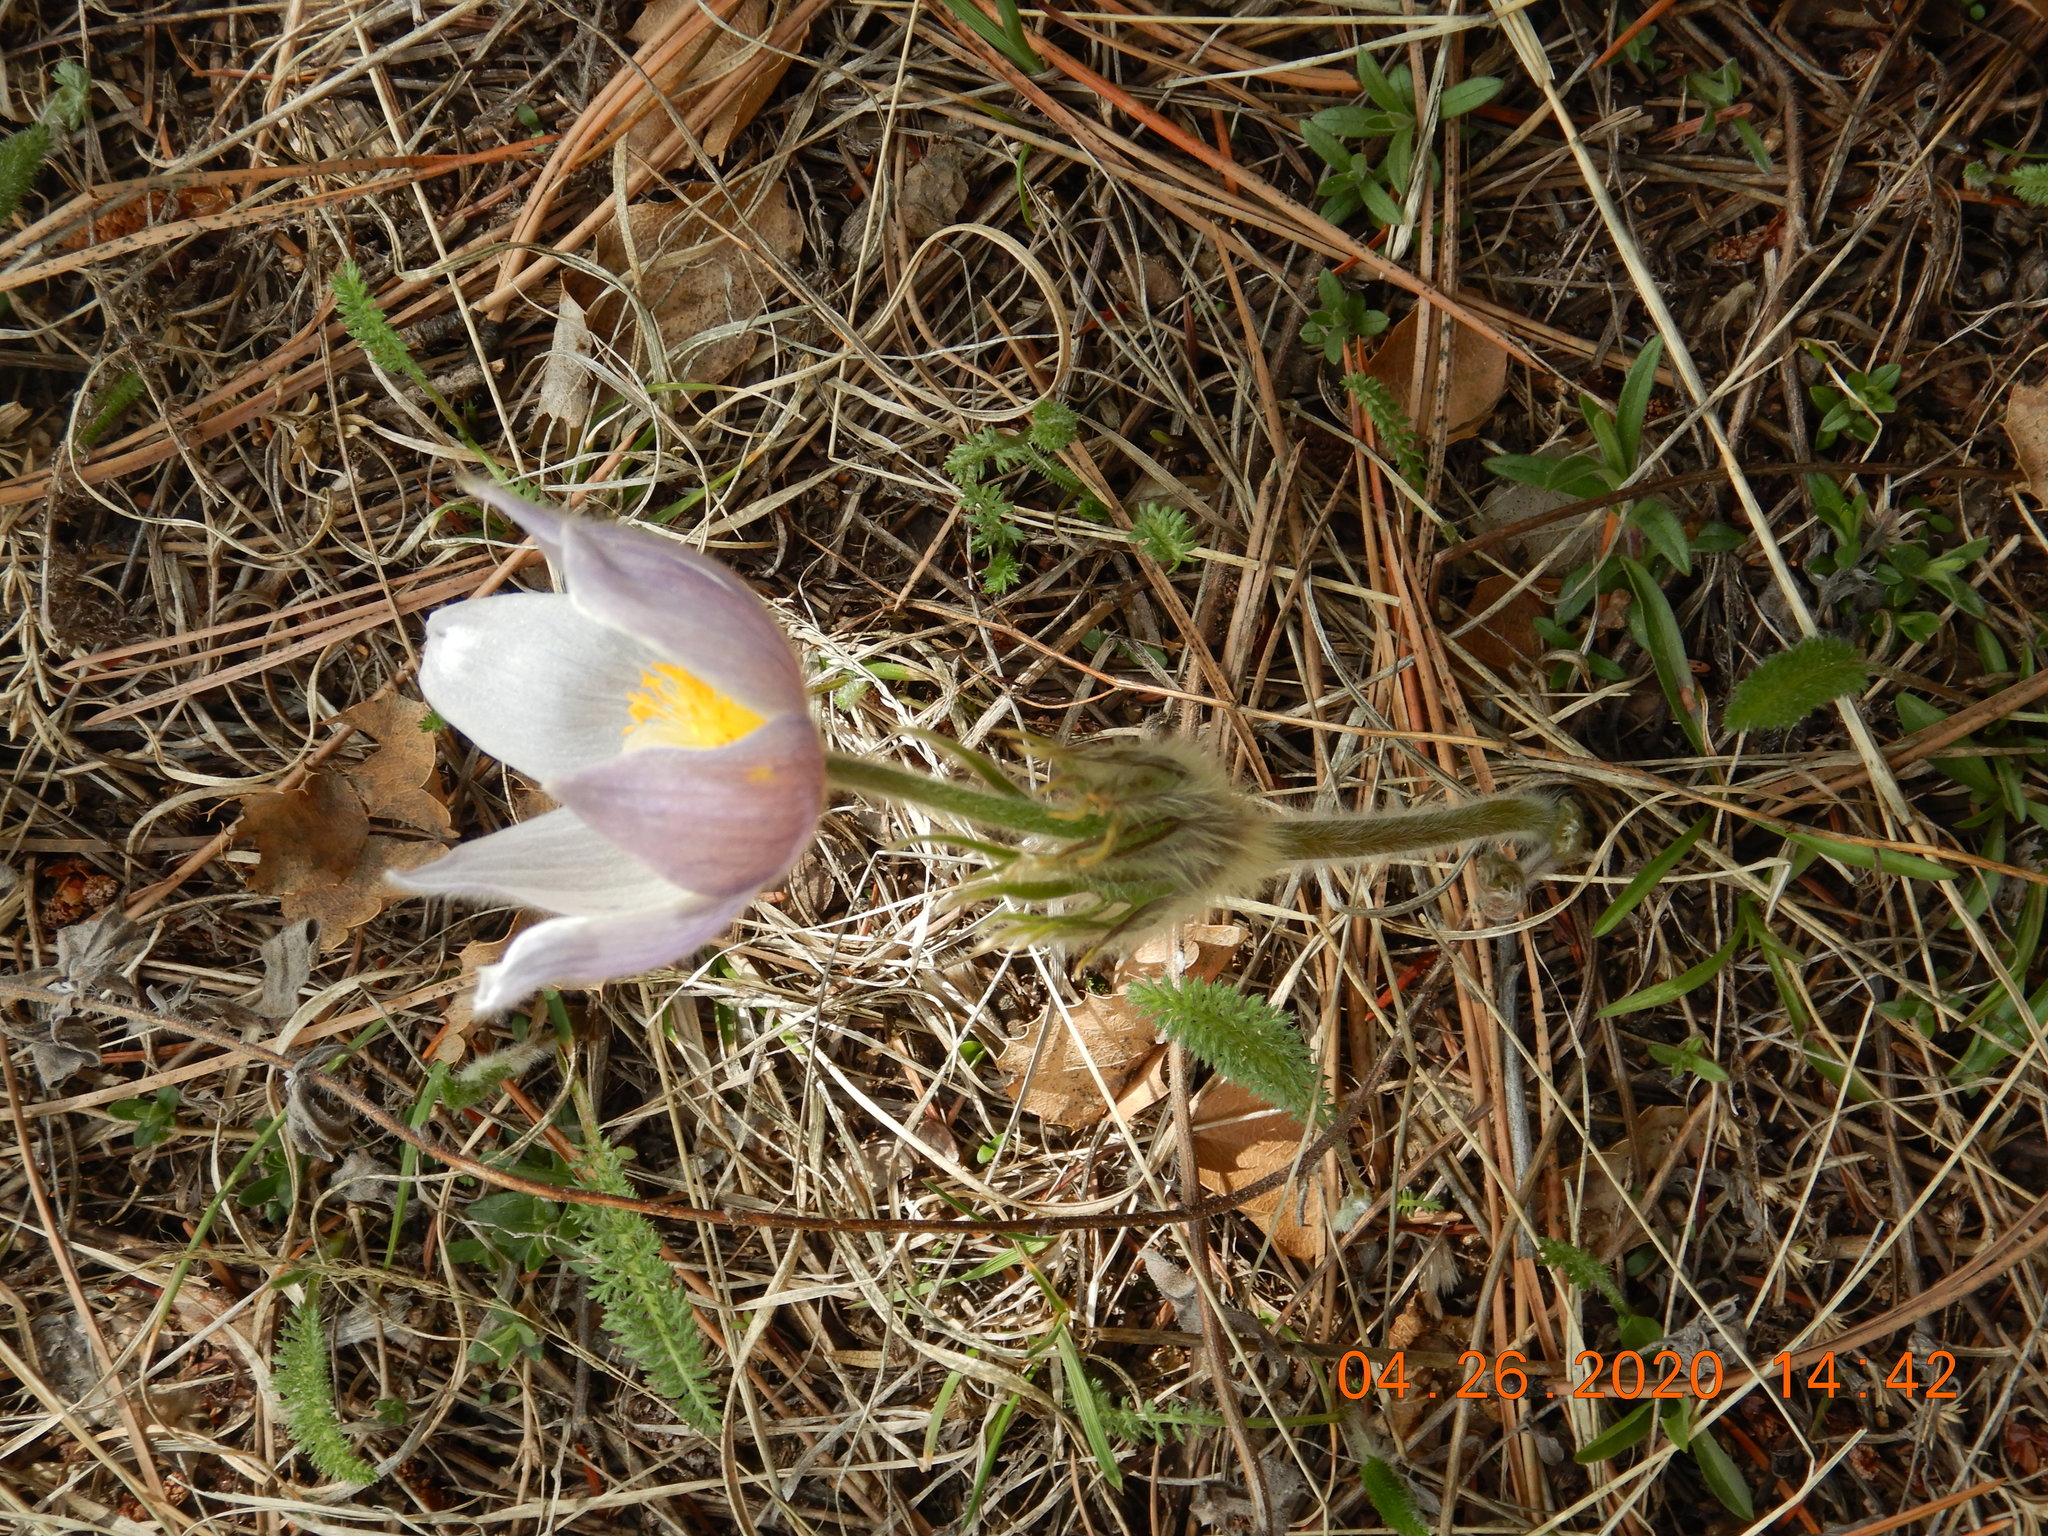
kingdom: Plantae
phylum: Tracheophyta
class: Magnoliopsida
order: Ranunculales
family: Ranunculaceae
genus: Pulsatilla
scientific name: Pulsatilla nuttalliana
